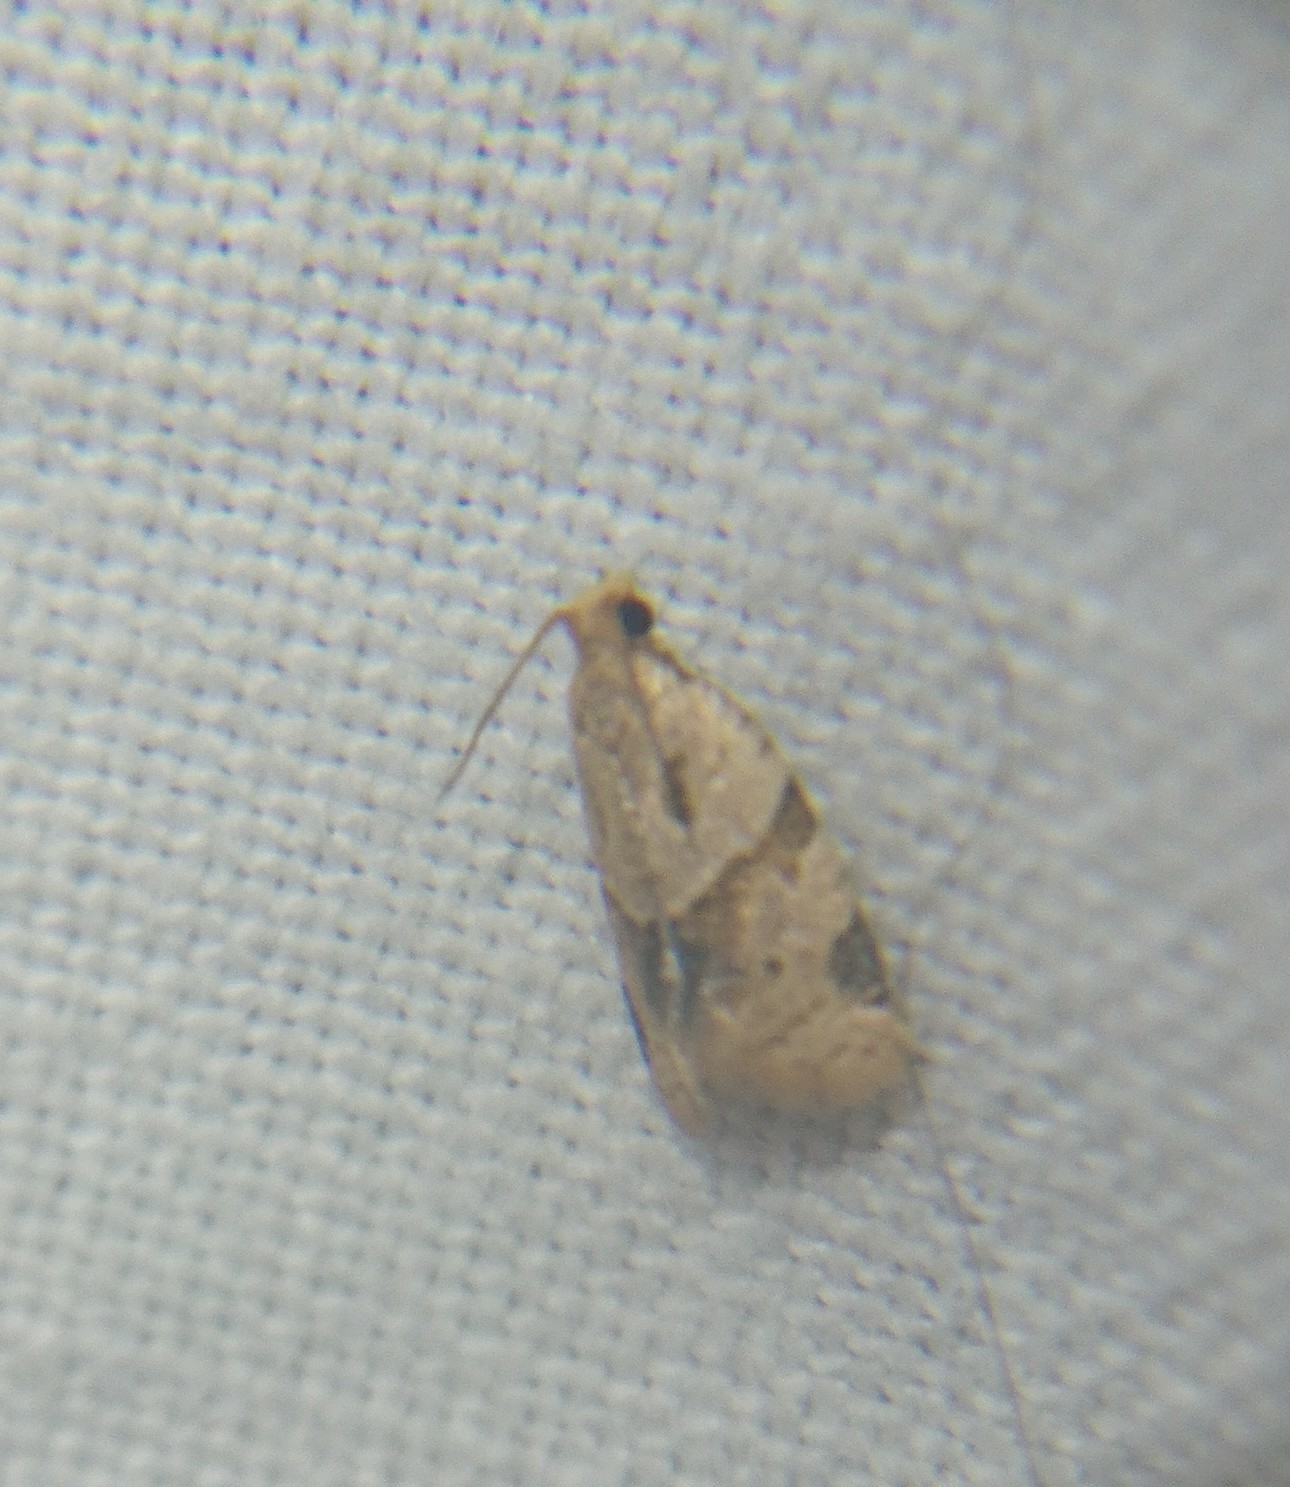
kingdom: Animalia
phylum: Arthropoda
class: Insecta
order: Lepidoptera
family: Tortricidae
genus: Clepsis
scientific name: Clepsis peritana
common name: Garden tortrix
